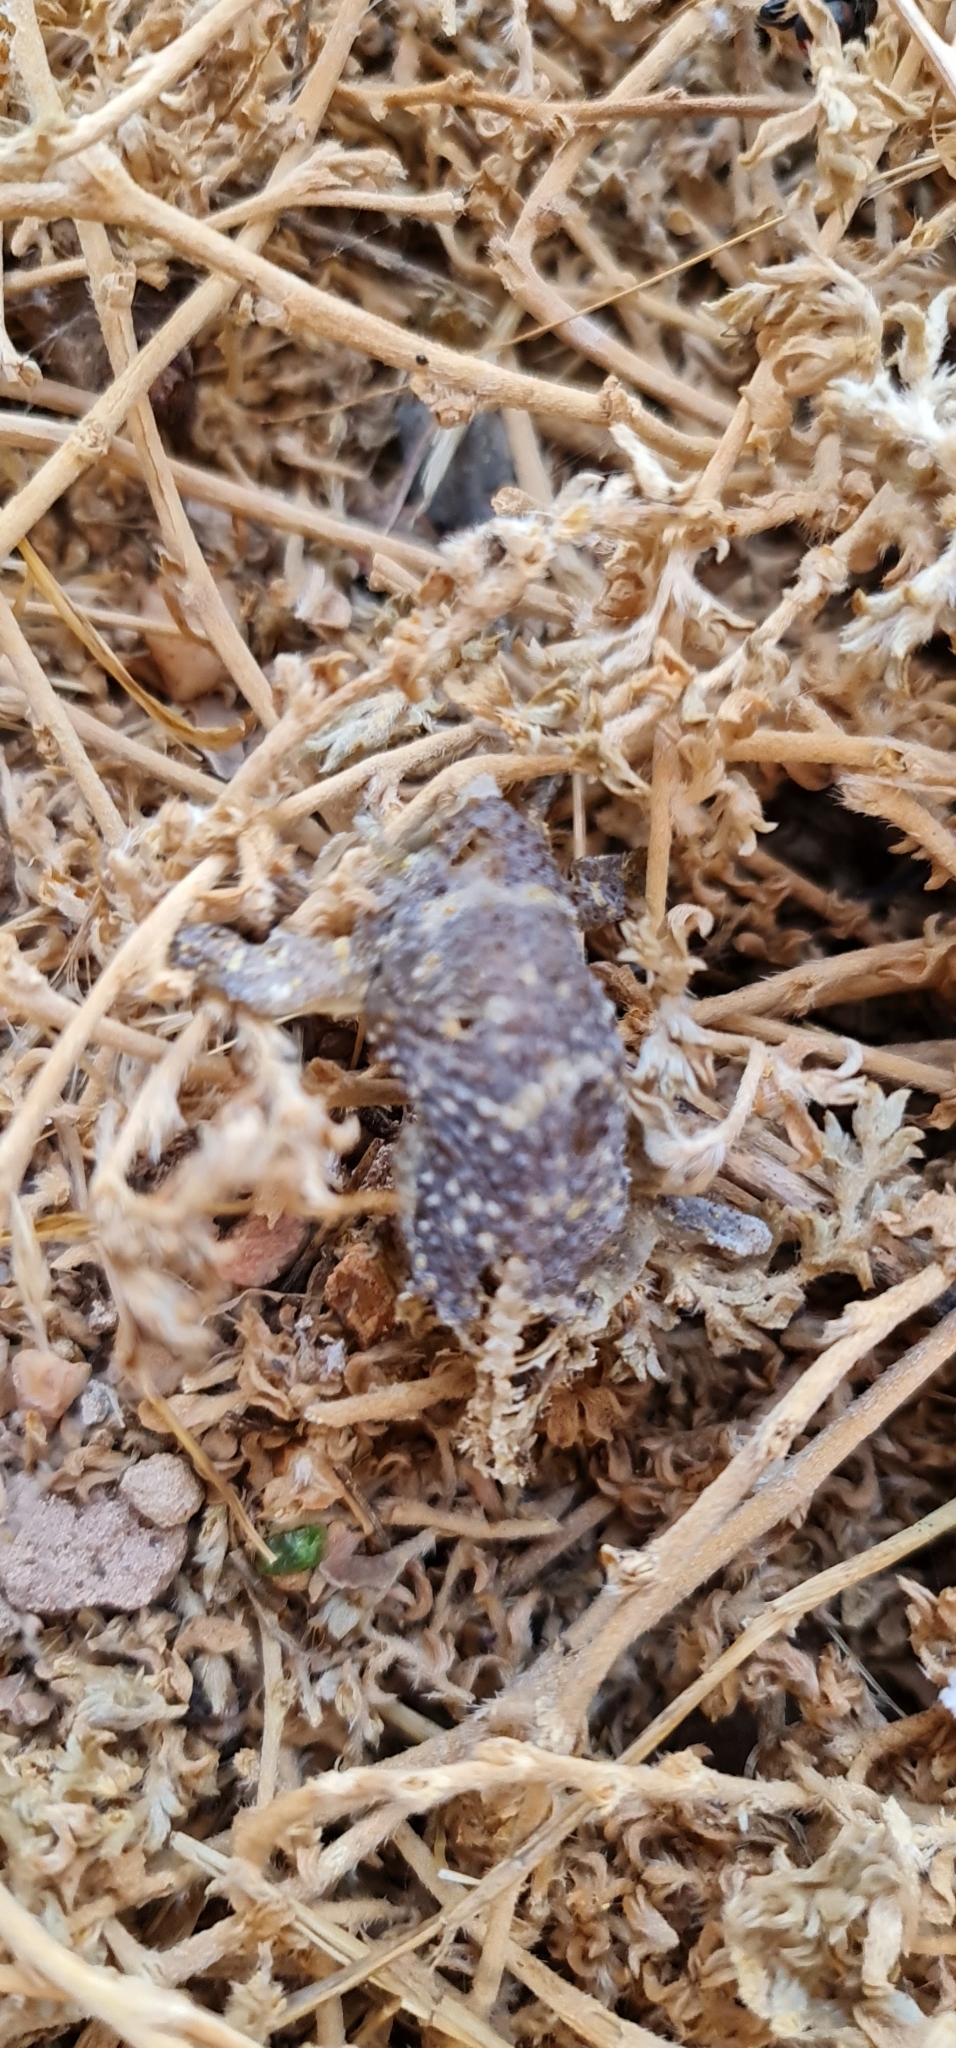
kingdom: Animalia
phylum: Chordata
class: Squamata
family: Carphodactylidae
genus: Underwoodisaurus
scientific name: Underwoodisaurus milii
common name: Barking gecko
